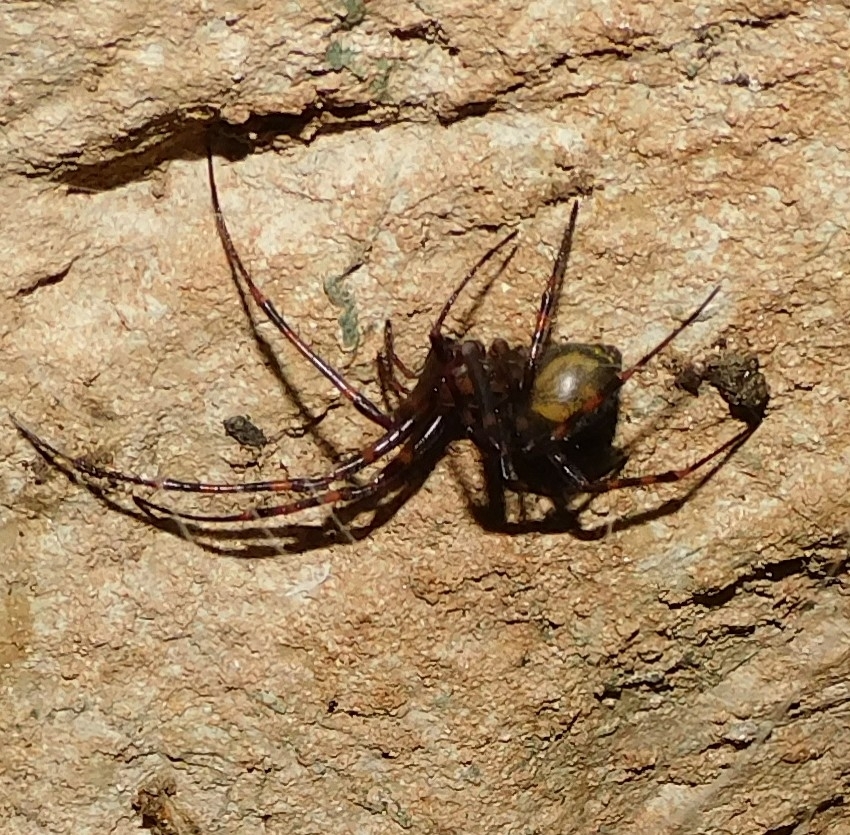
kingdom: Animalia
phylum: Arthropoda
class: Arachnida
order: Araneae
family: Tetragnathidae
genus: Meta
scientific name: Meta menardi
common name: Cave spider
